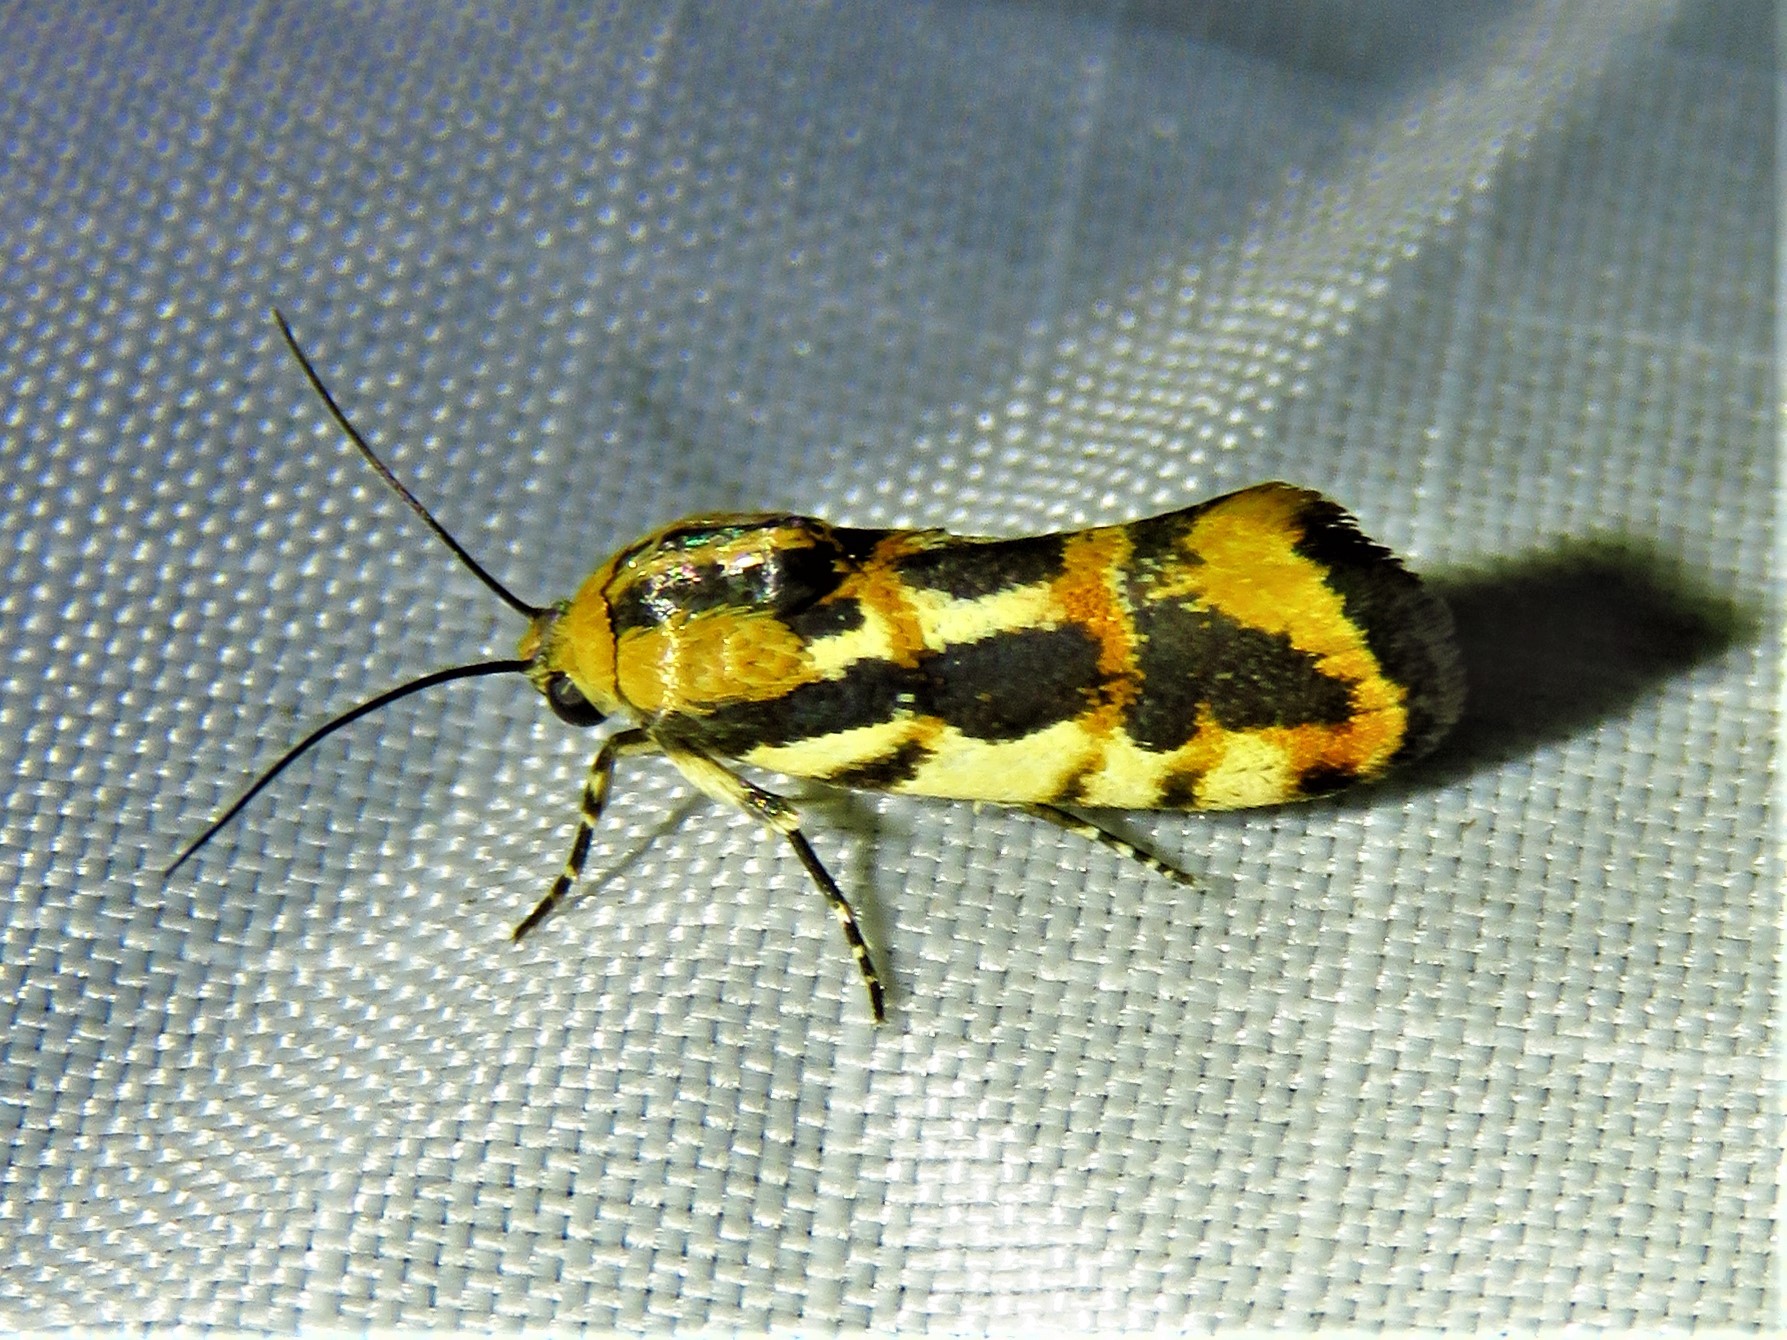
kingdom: Animalia
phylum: Arthropoda
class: Insecta
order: Lepidoptera
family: Noctuidae
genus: Acontia
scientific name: Acontia leo
